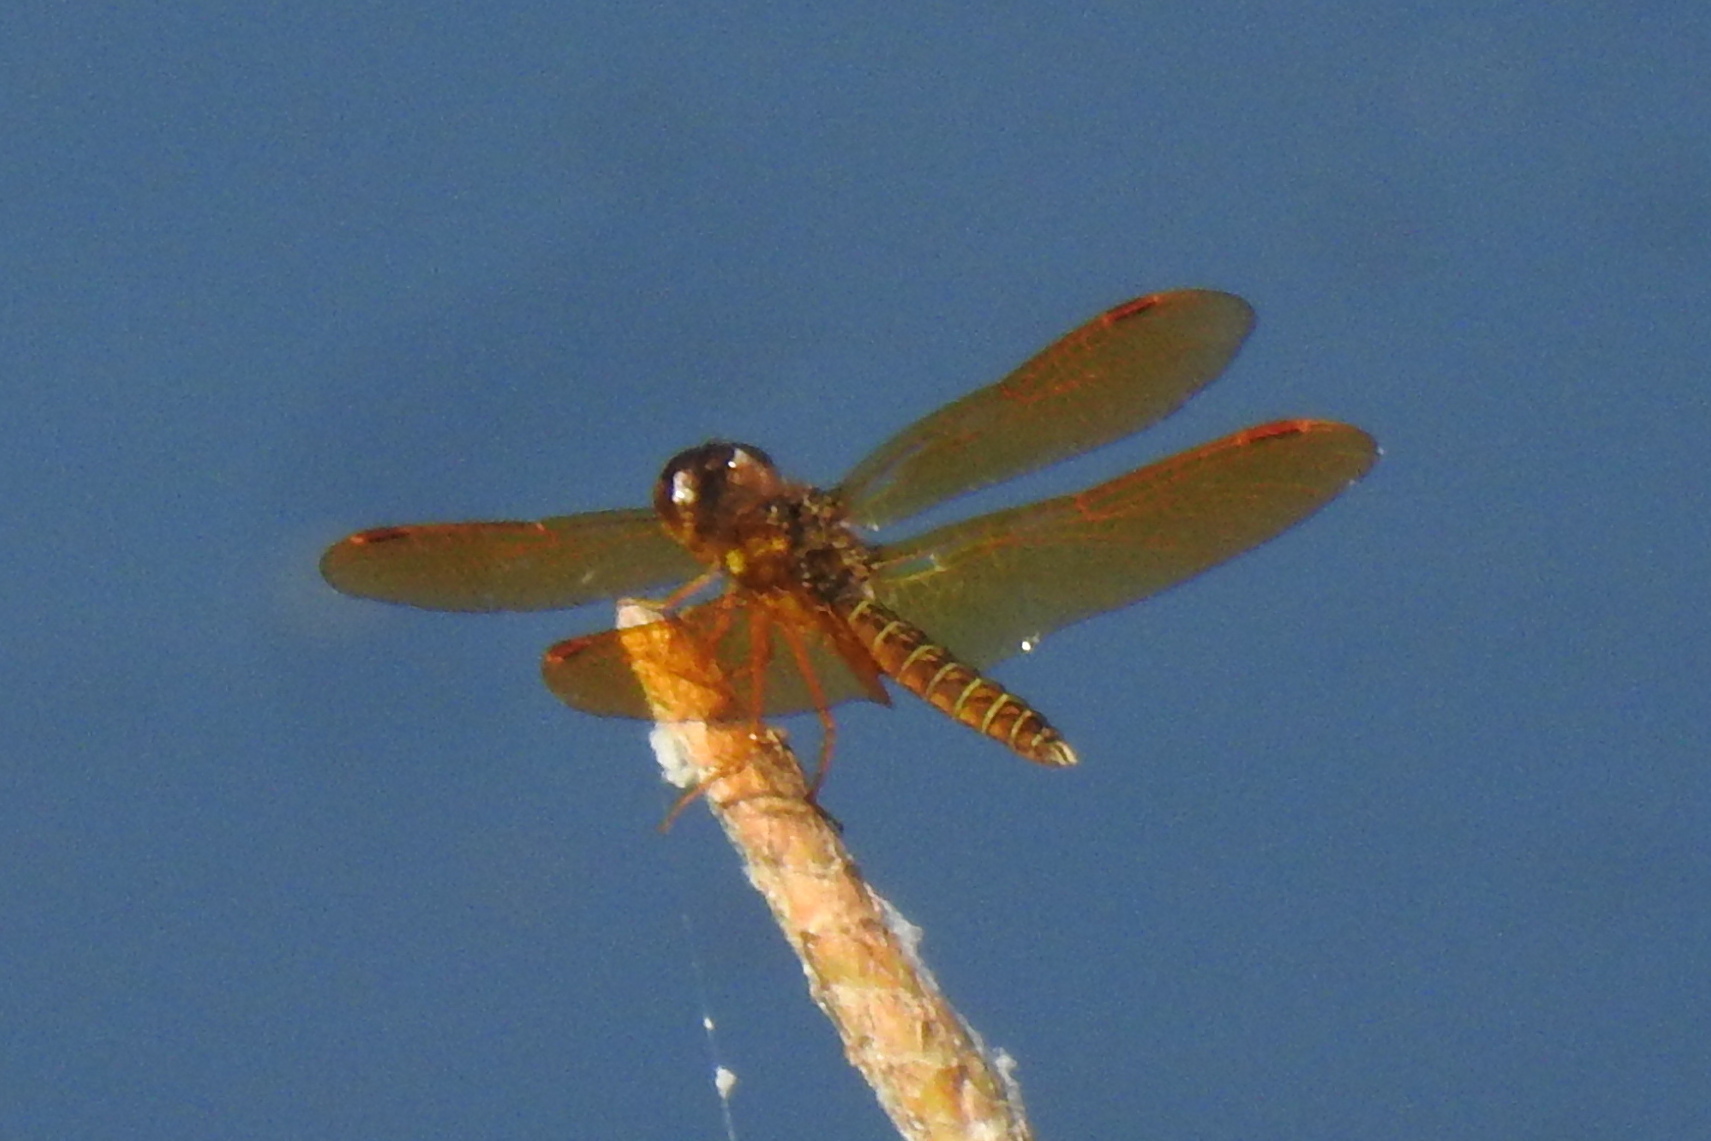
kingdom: Animalia
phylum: Arthropoda
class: Insecta
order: Odonata
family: Libellulidae
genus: Perithemis
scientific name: Perithemis tenera
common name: Eastern amberwing
